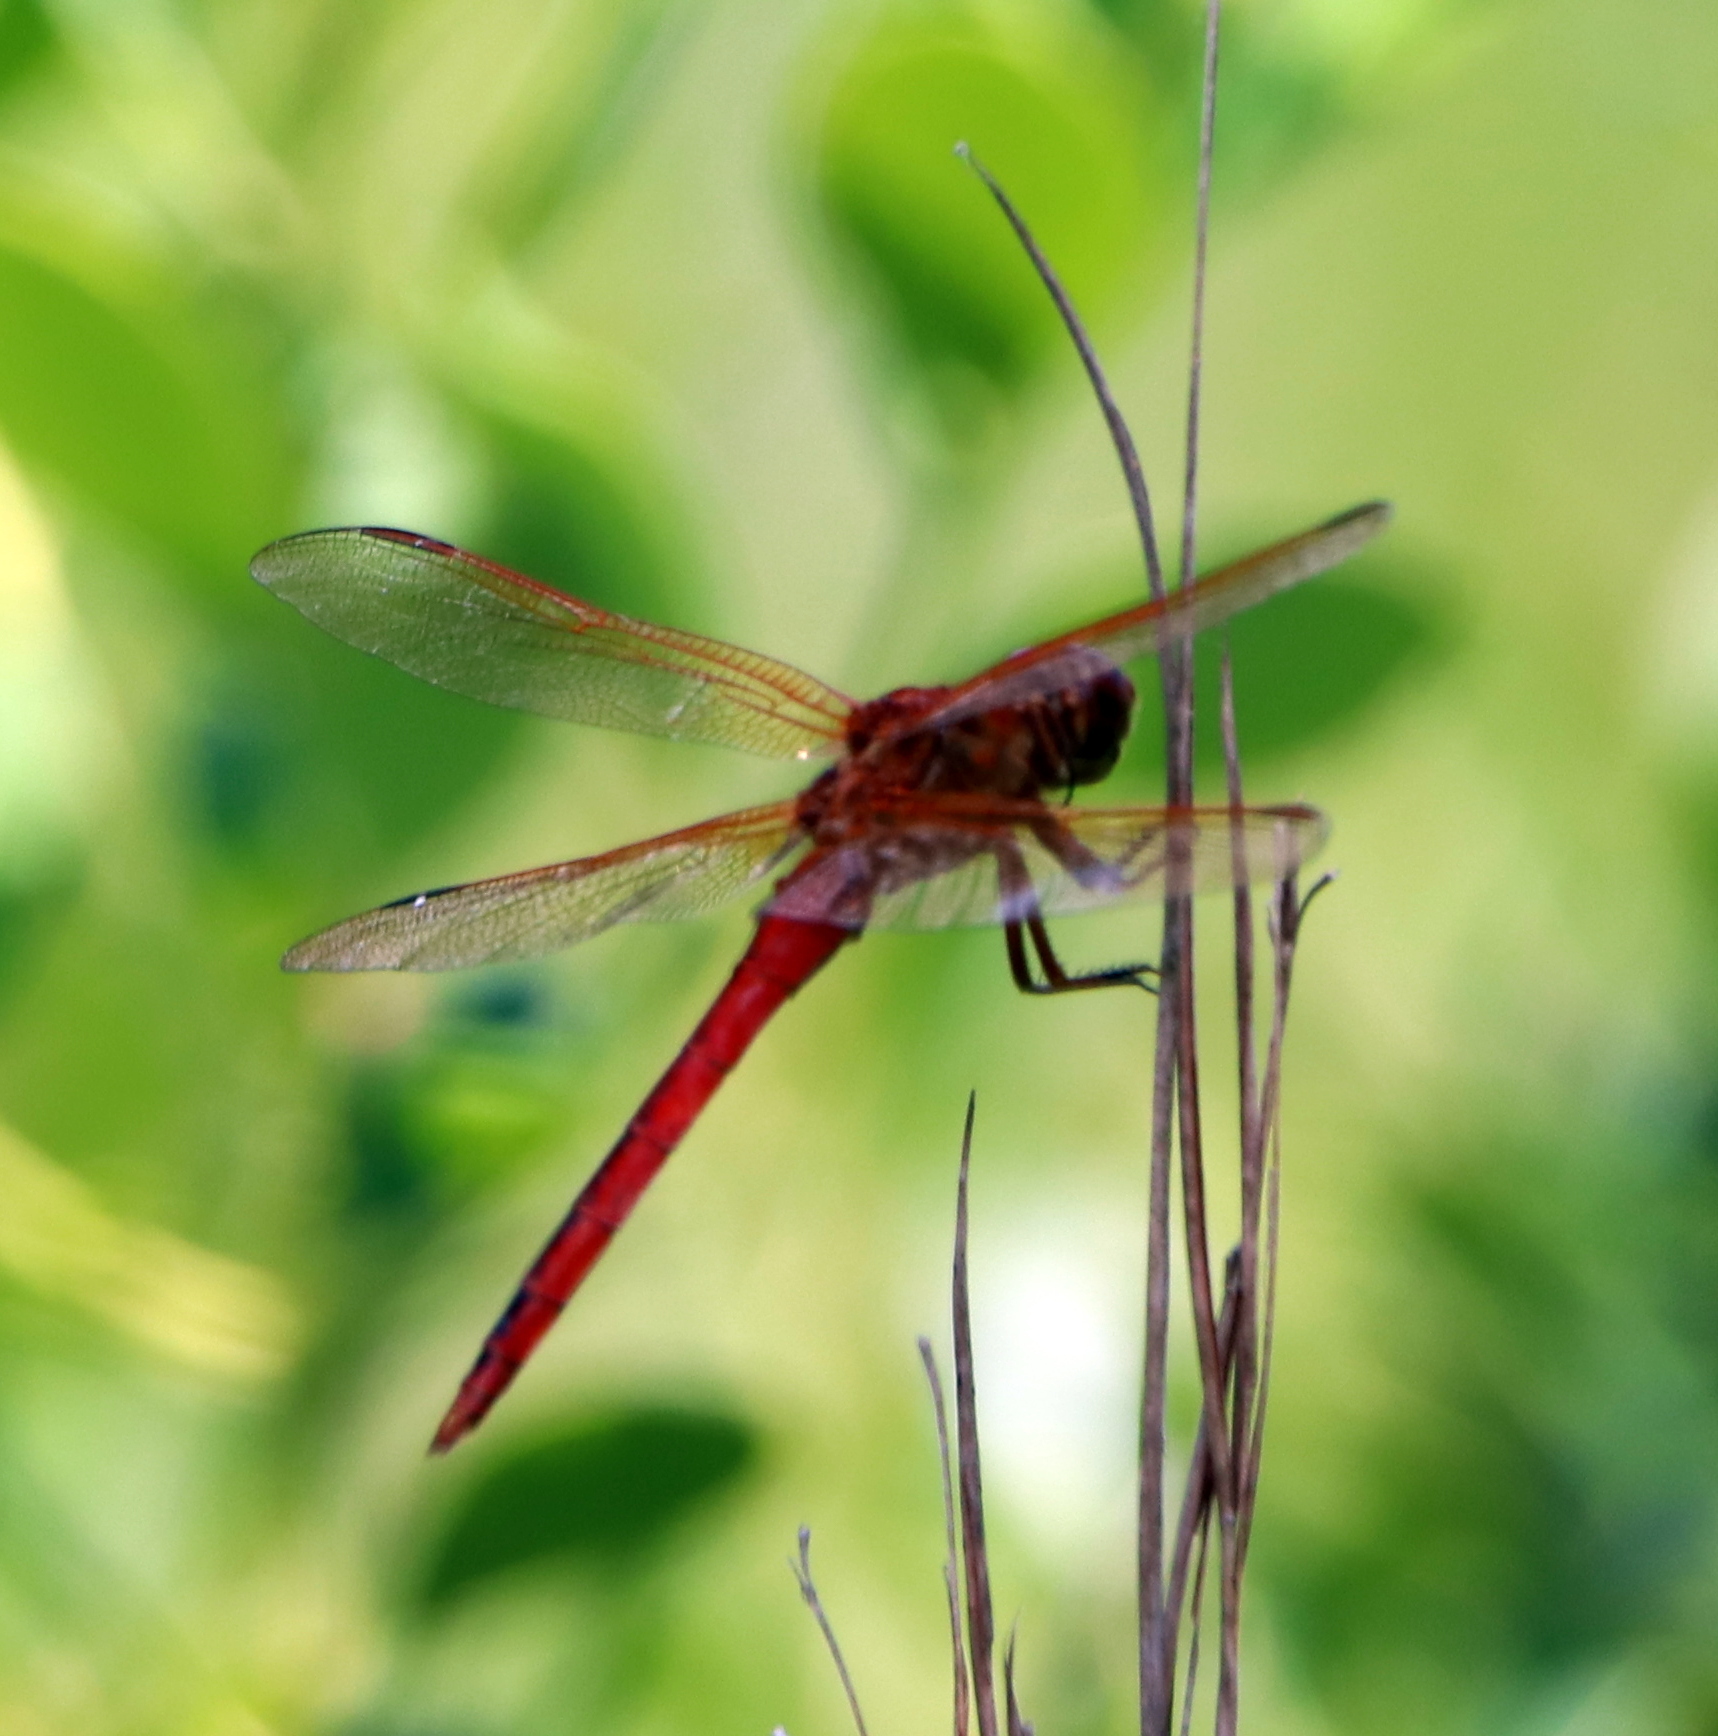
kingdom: Animalia
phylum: Arthropoda
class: Insecta
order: Odonata
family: Libellulidae
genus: Libellula
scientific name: Libellula needhami
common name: Needham's skimmer
